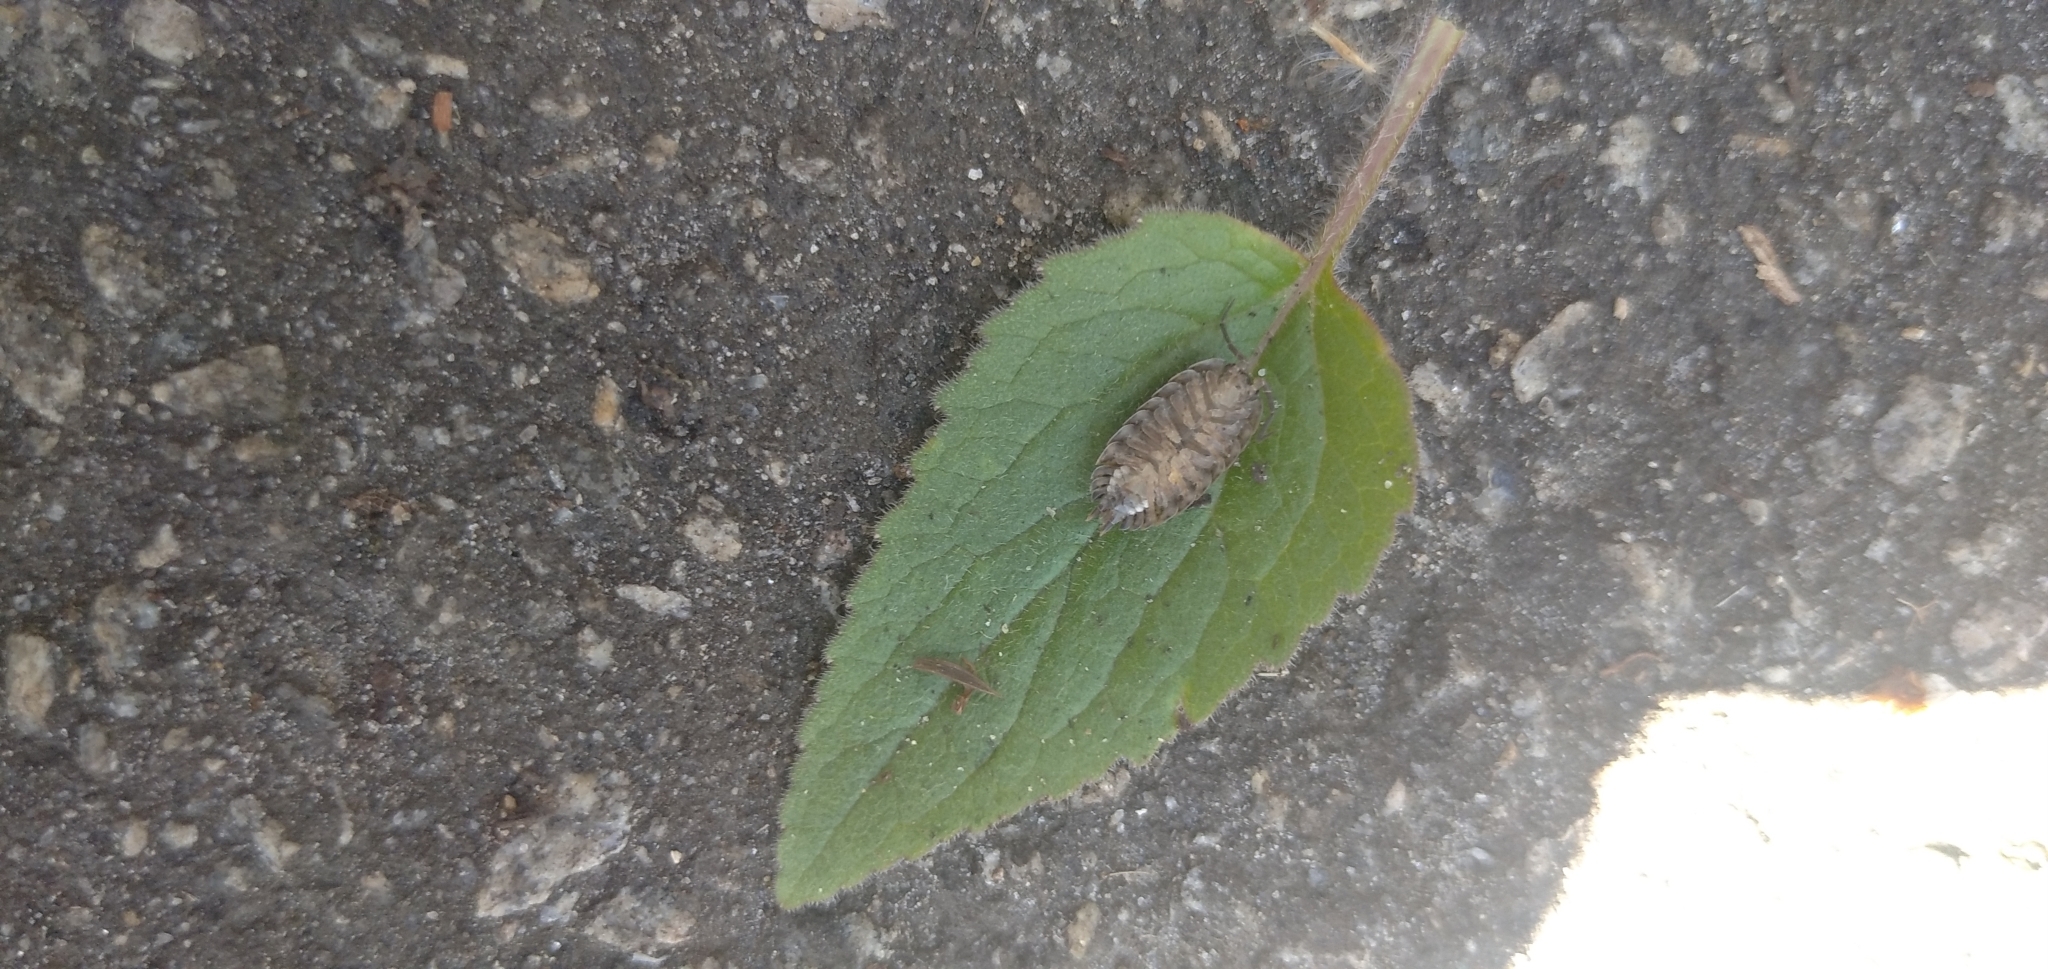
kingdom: Animalia
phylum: Arthropoda
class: Malacostraca
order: Isopoda
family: Trachelipodidae
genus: Trachelipus
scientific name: Trachelipus rathkii
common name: Isopod
